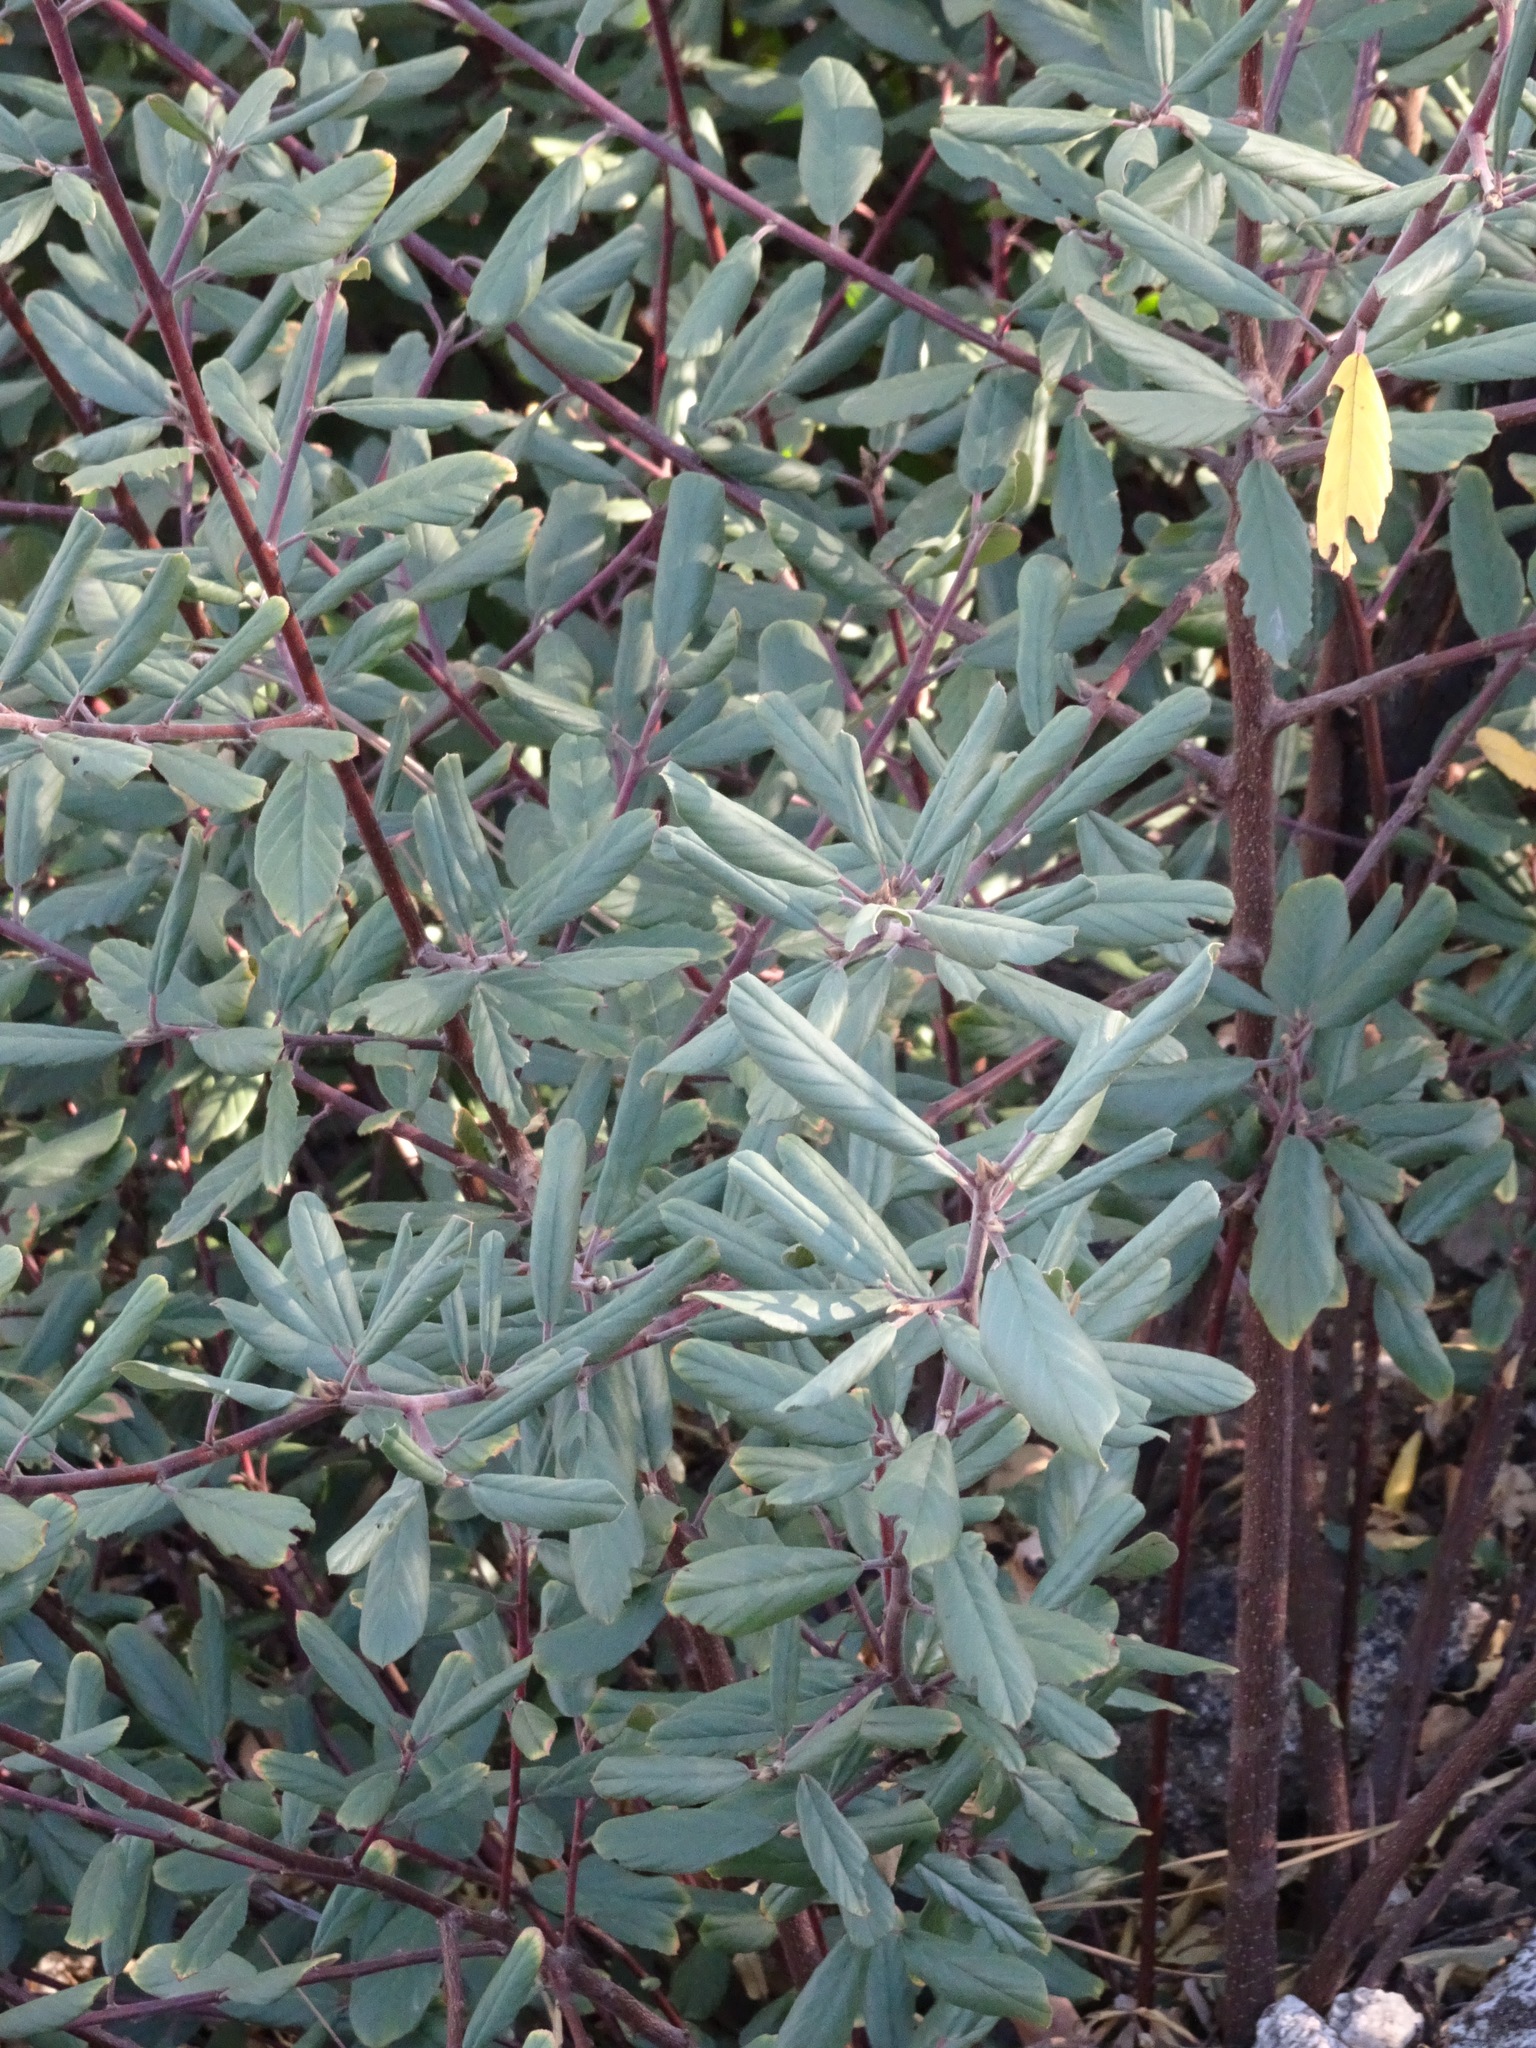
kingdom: Plantae
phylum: Tracheophyta
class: Magnoliopsida
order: Rosales
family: Rhamnaceae
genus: Frangula
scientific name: Frangula californica
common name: California buckthorn
